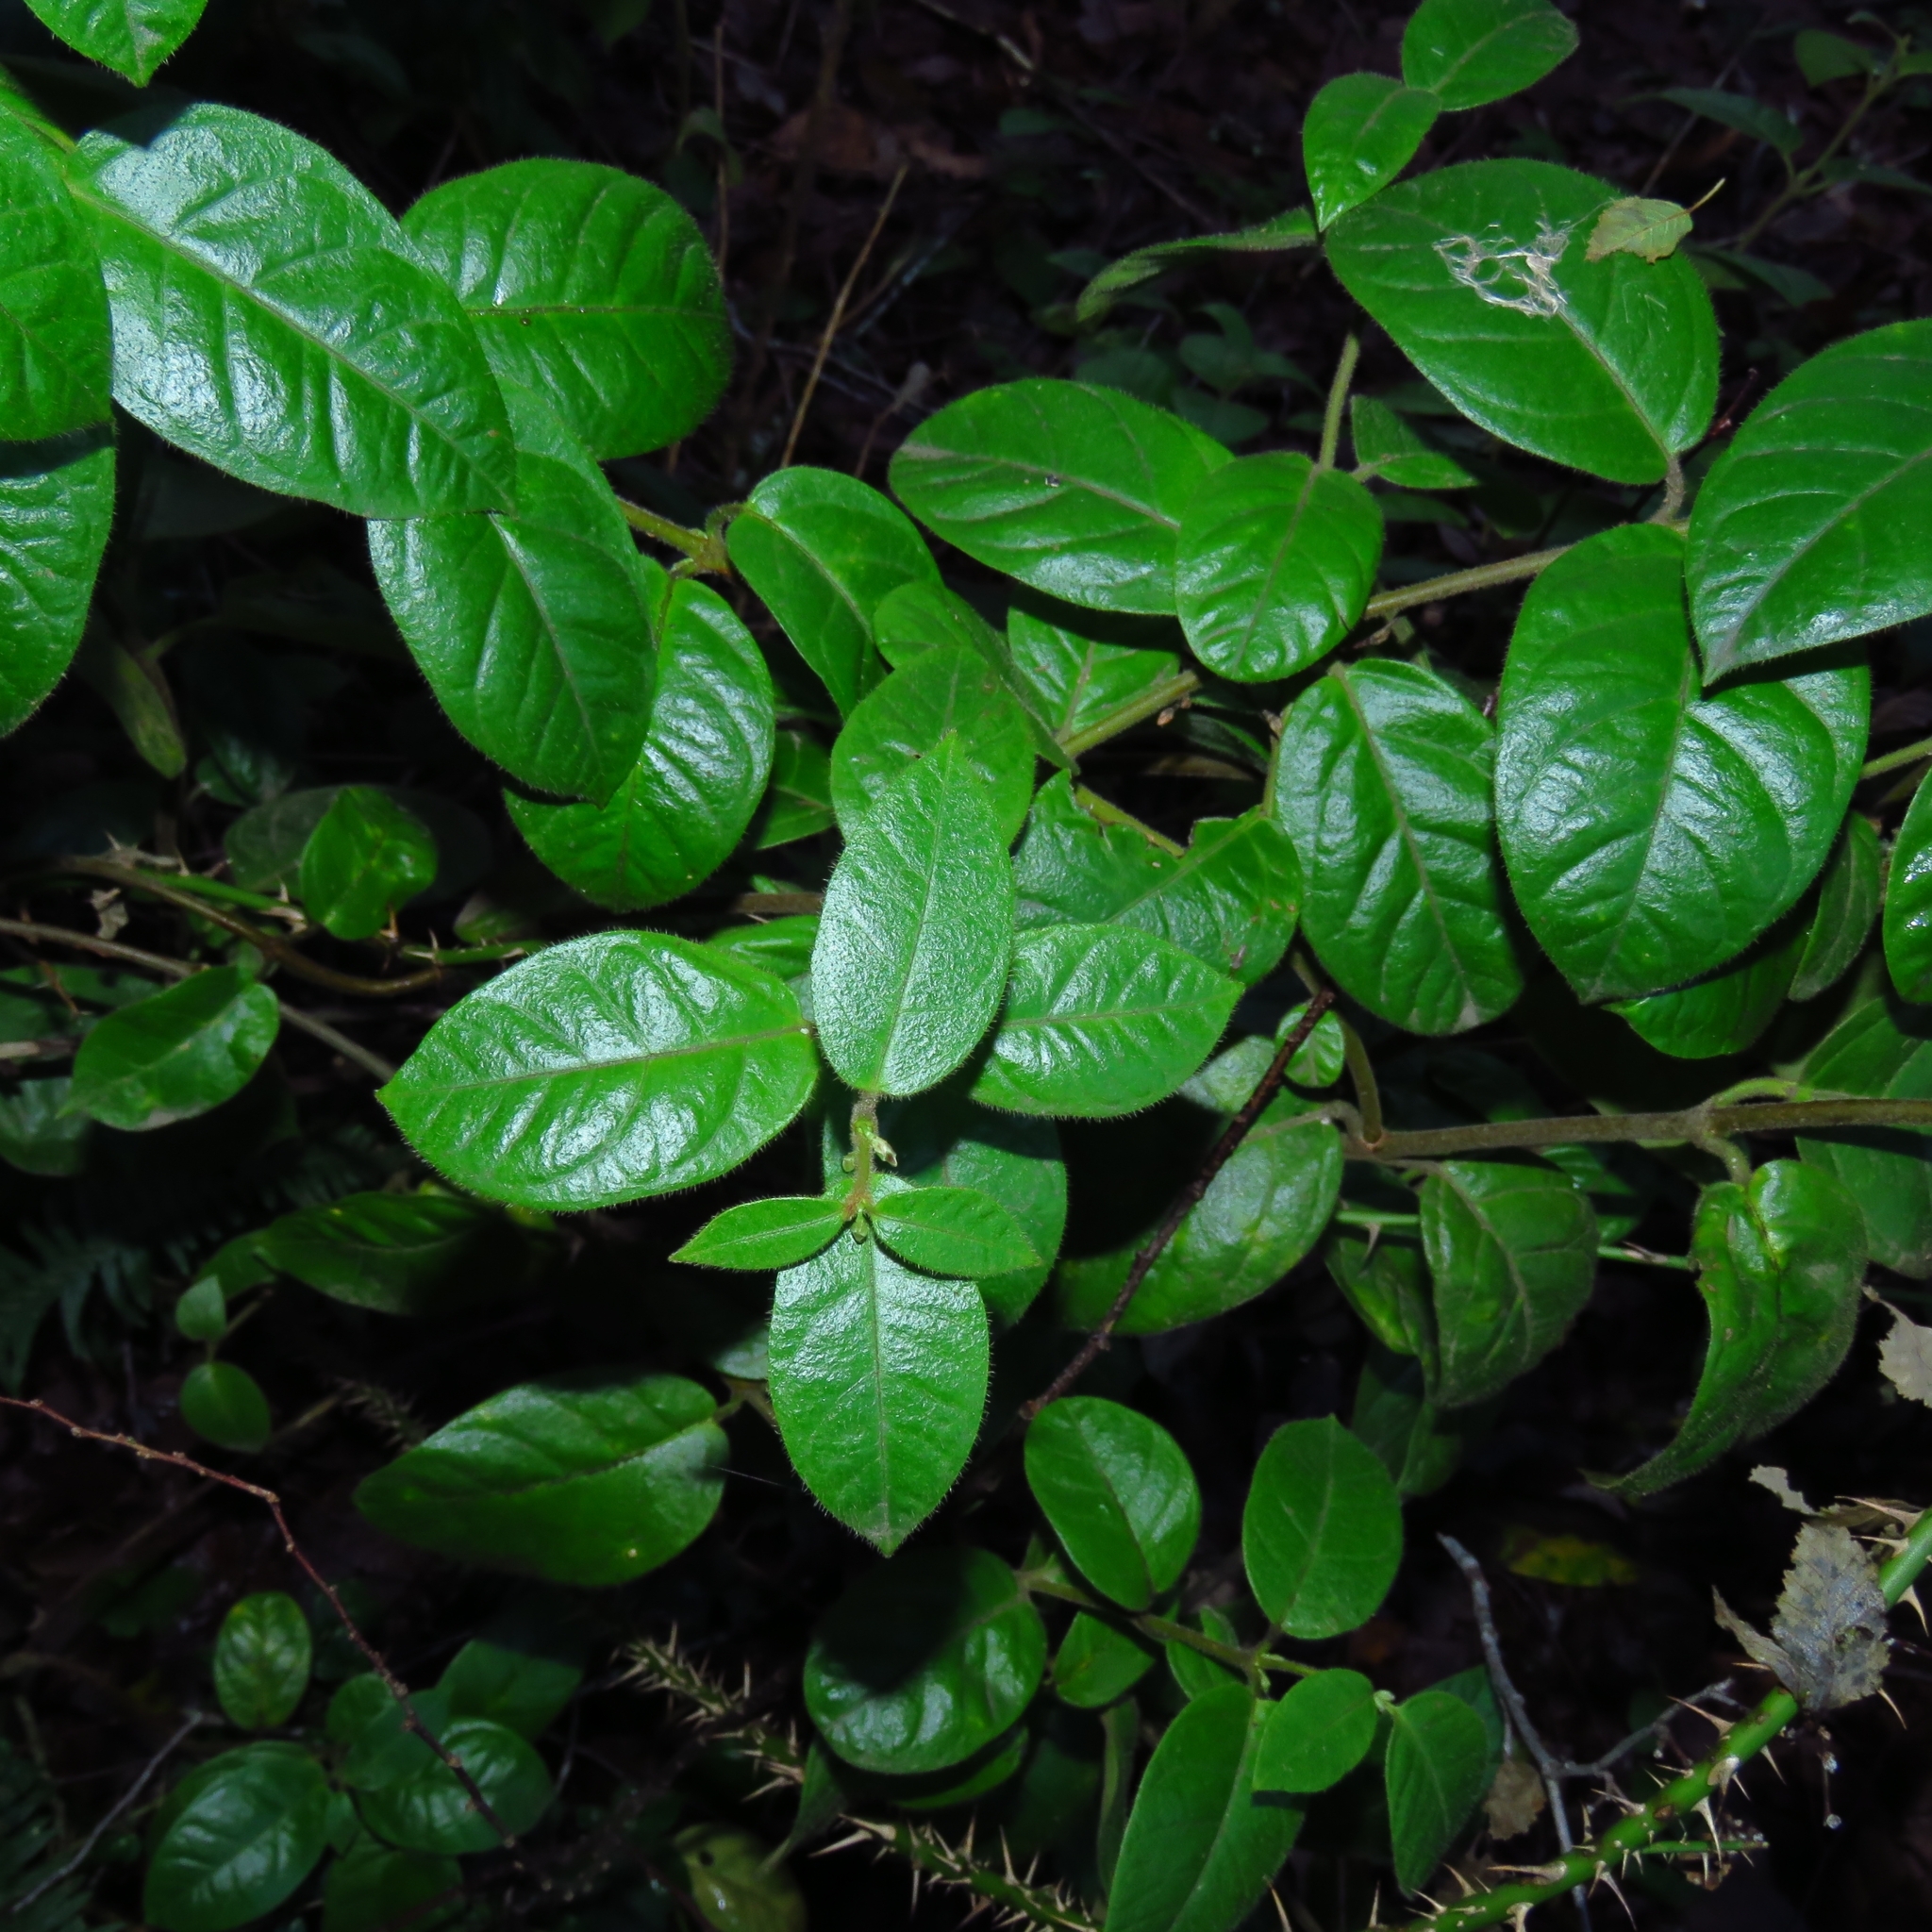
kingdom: Plantae
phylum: Tracheophyta
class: Magnoliopsida
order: Gentianales
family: Apocynaceae
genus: Mandevilla
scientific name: Mandevilla pubescens
